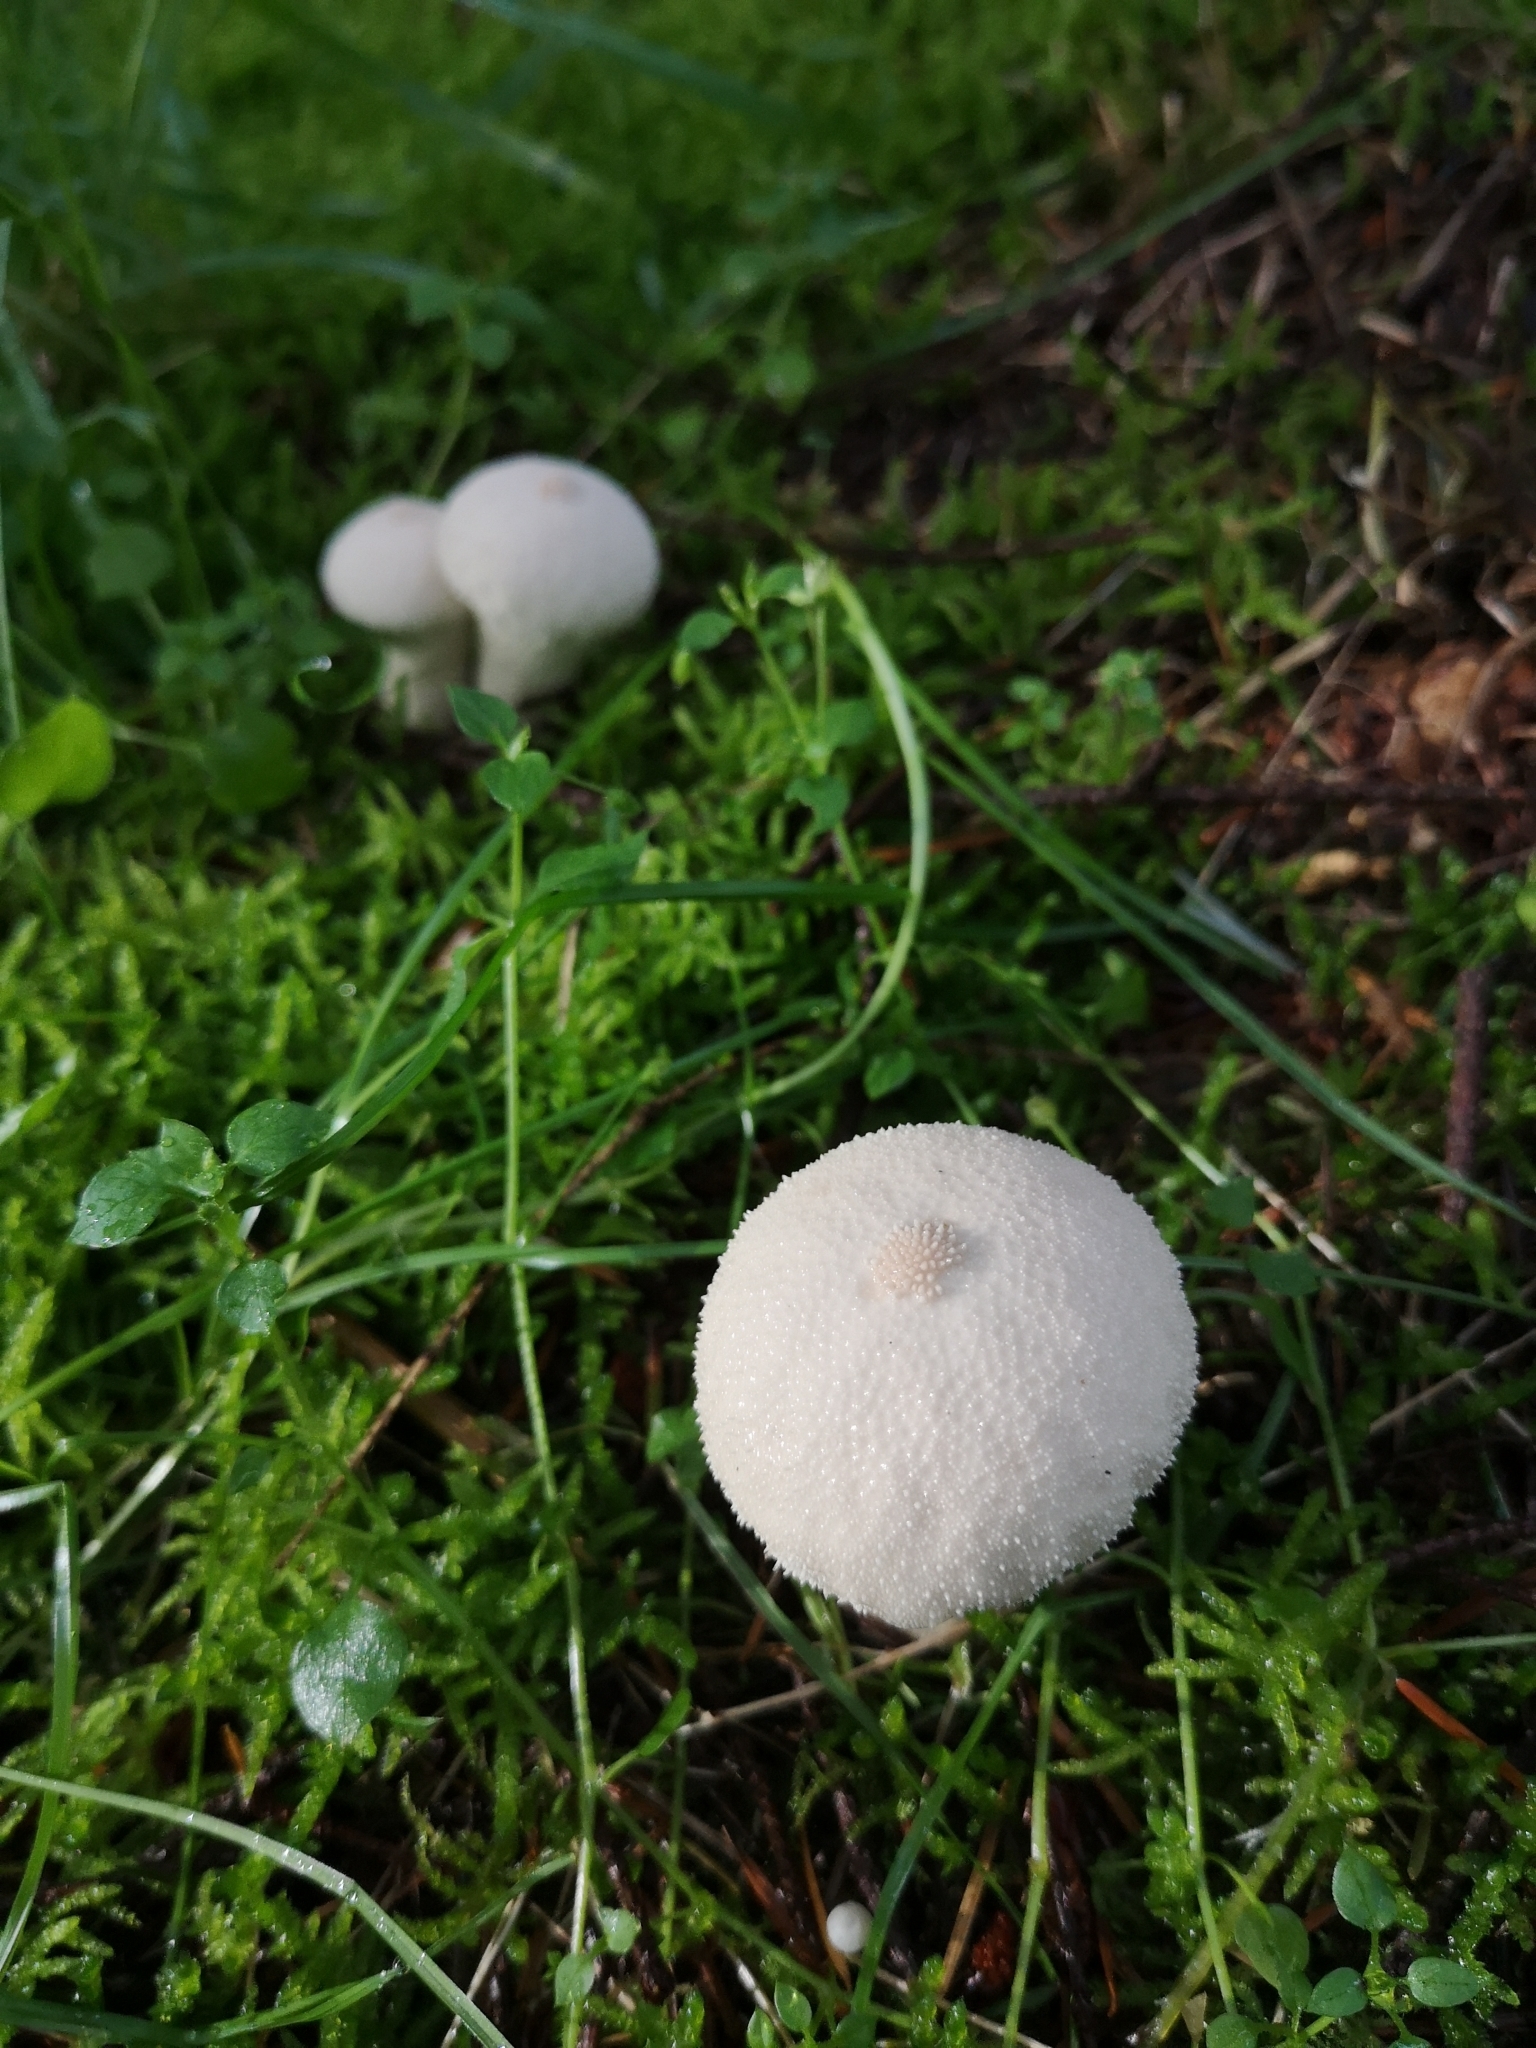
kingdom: Fungi
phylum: Basidiomycota
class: Agaricomycetes
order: Agaricales
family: Lycoperdaceae
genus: Lycoperdon
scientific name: Lycoperdon perlatum
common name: Common puffball
